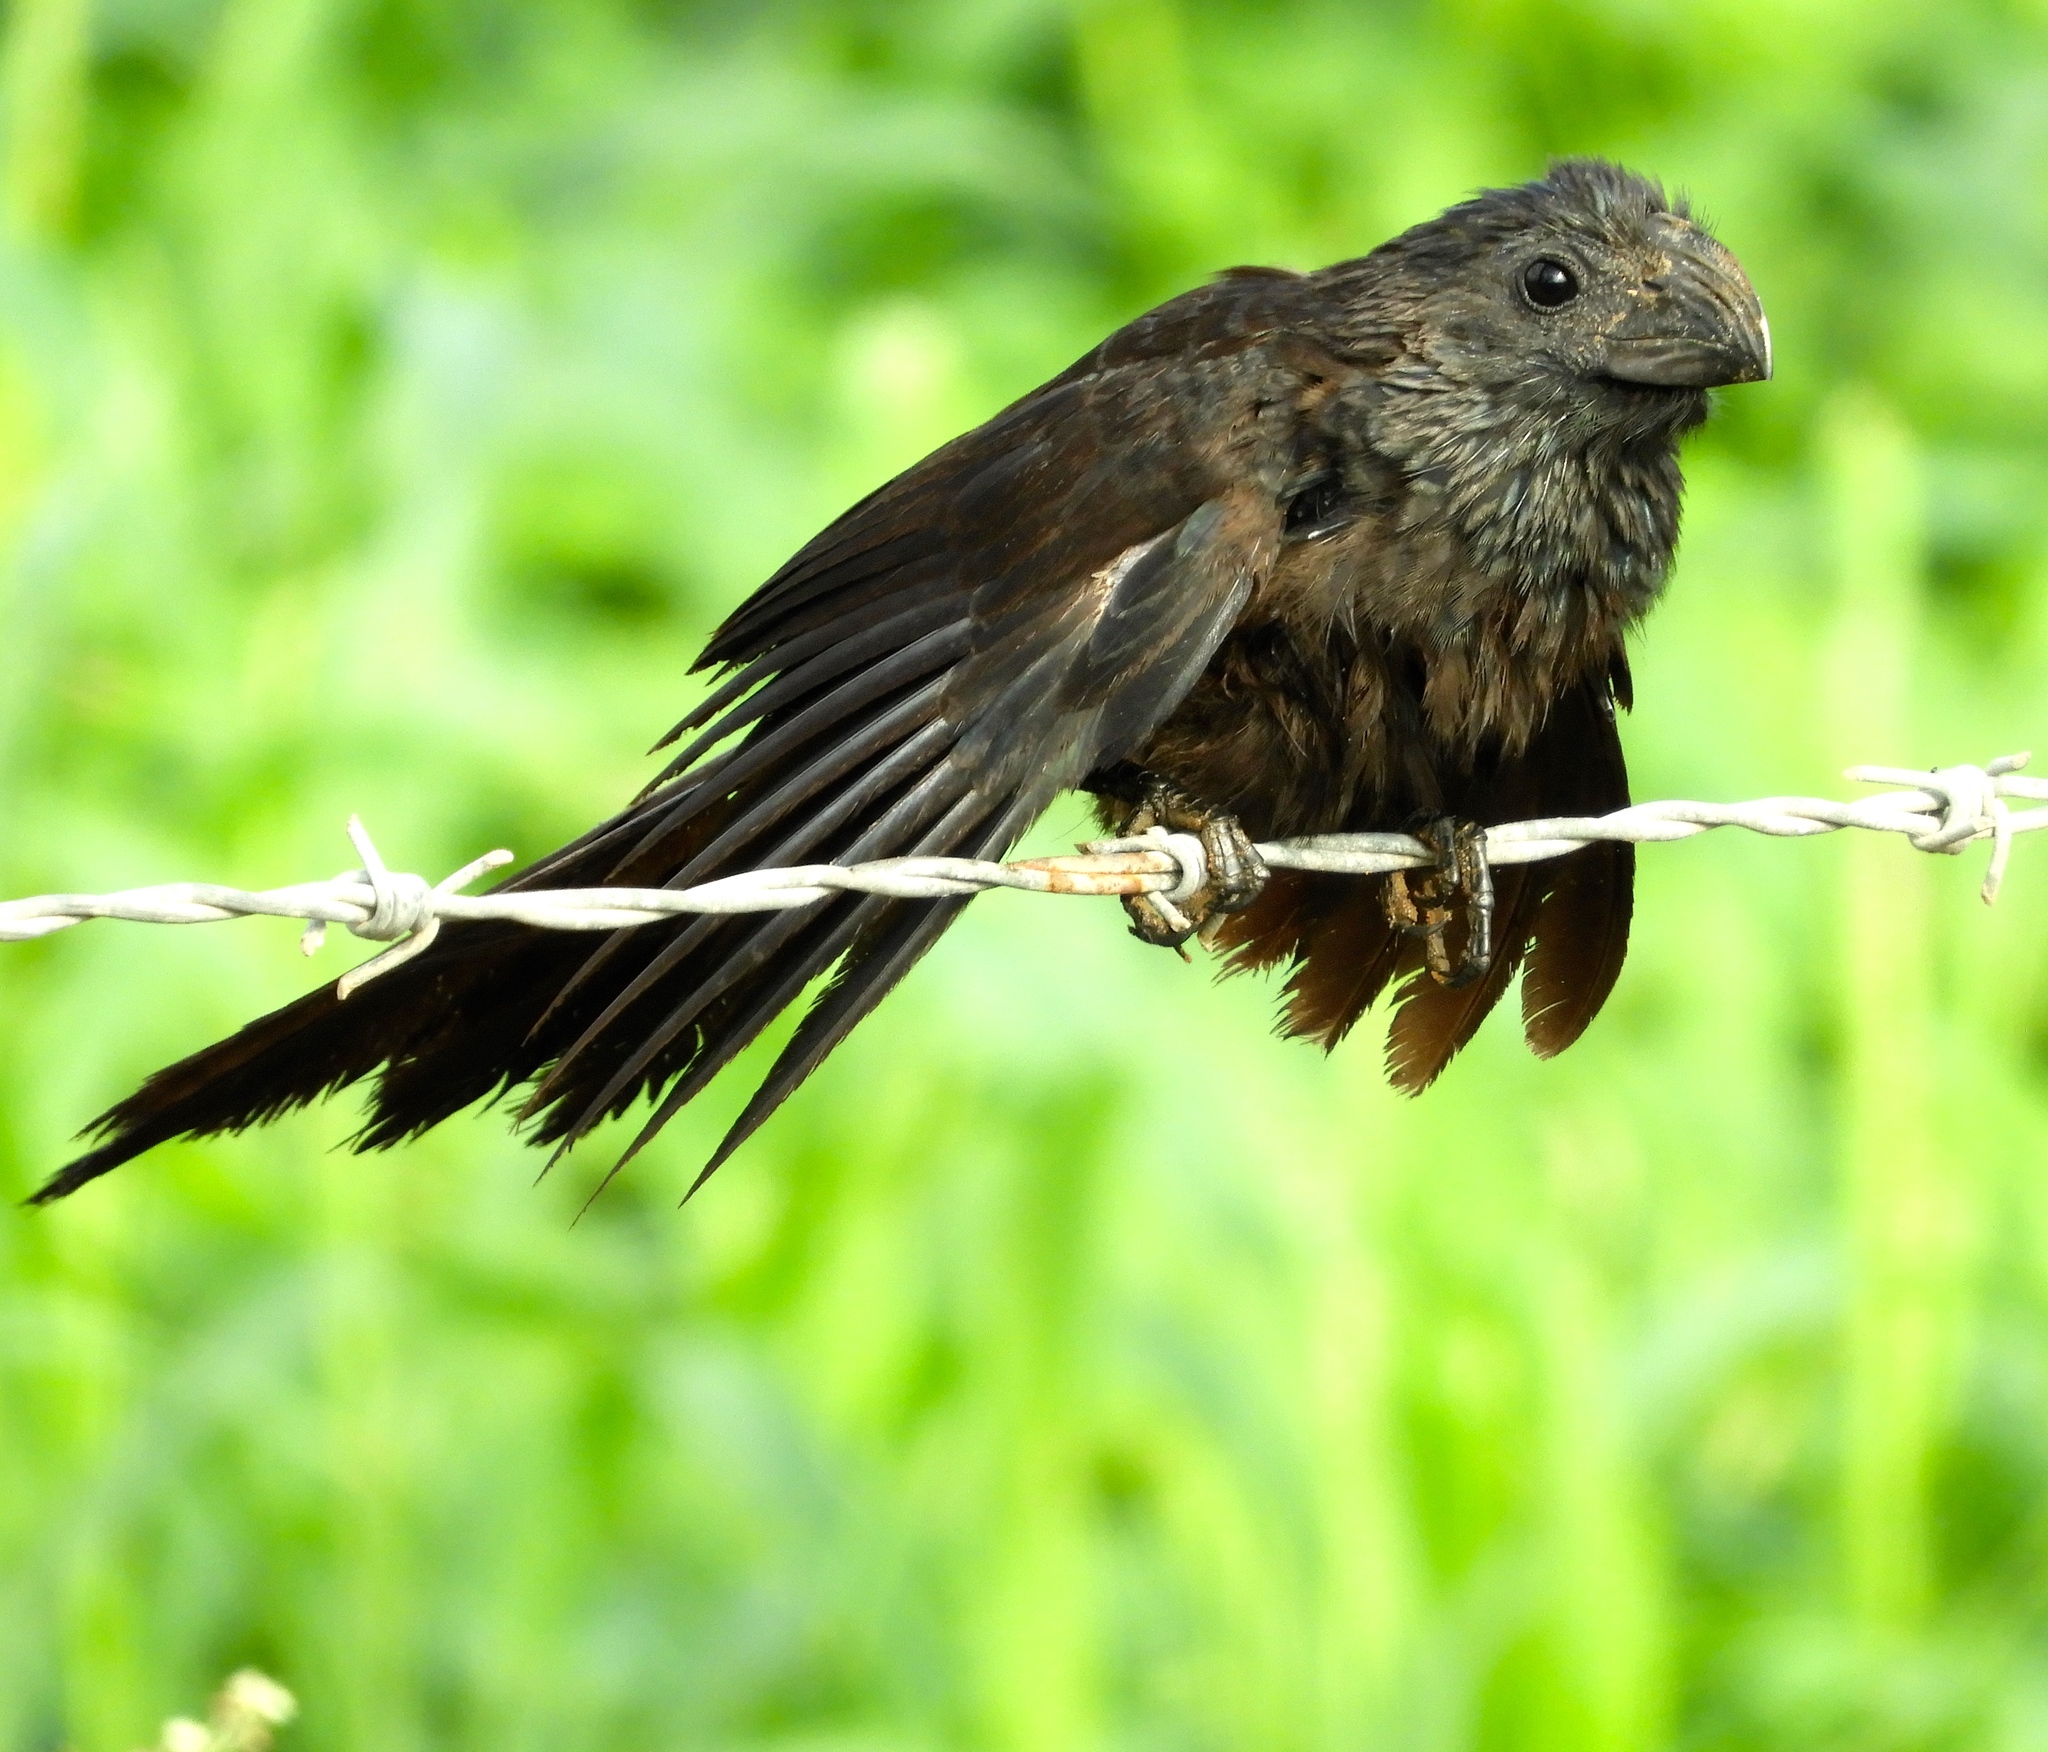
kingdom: Animalia
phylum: Chordata
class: Aves
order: Cuculiformes
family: Cuculidae
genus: Crotophaga
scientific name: Crotophaga sulcirostris
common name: Groove-billed ani
